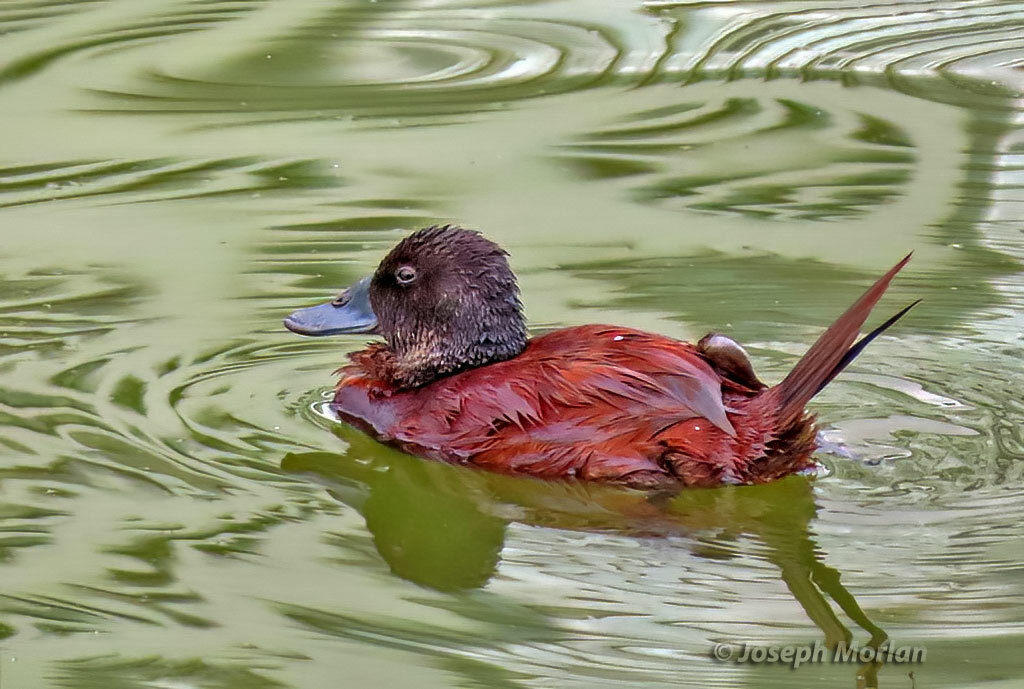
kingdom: Animalia
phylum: Chordata
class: Aves
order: Anseriformes
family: Anatidae
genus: Oxyura
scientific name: Oxyura vittata
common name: Lake duck
